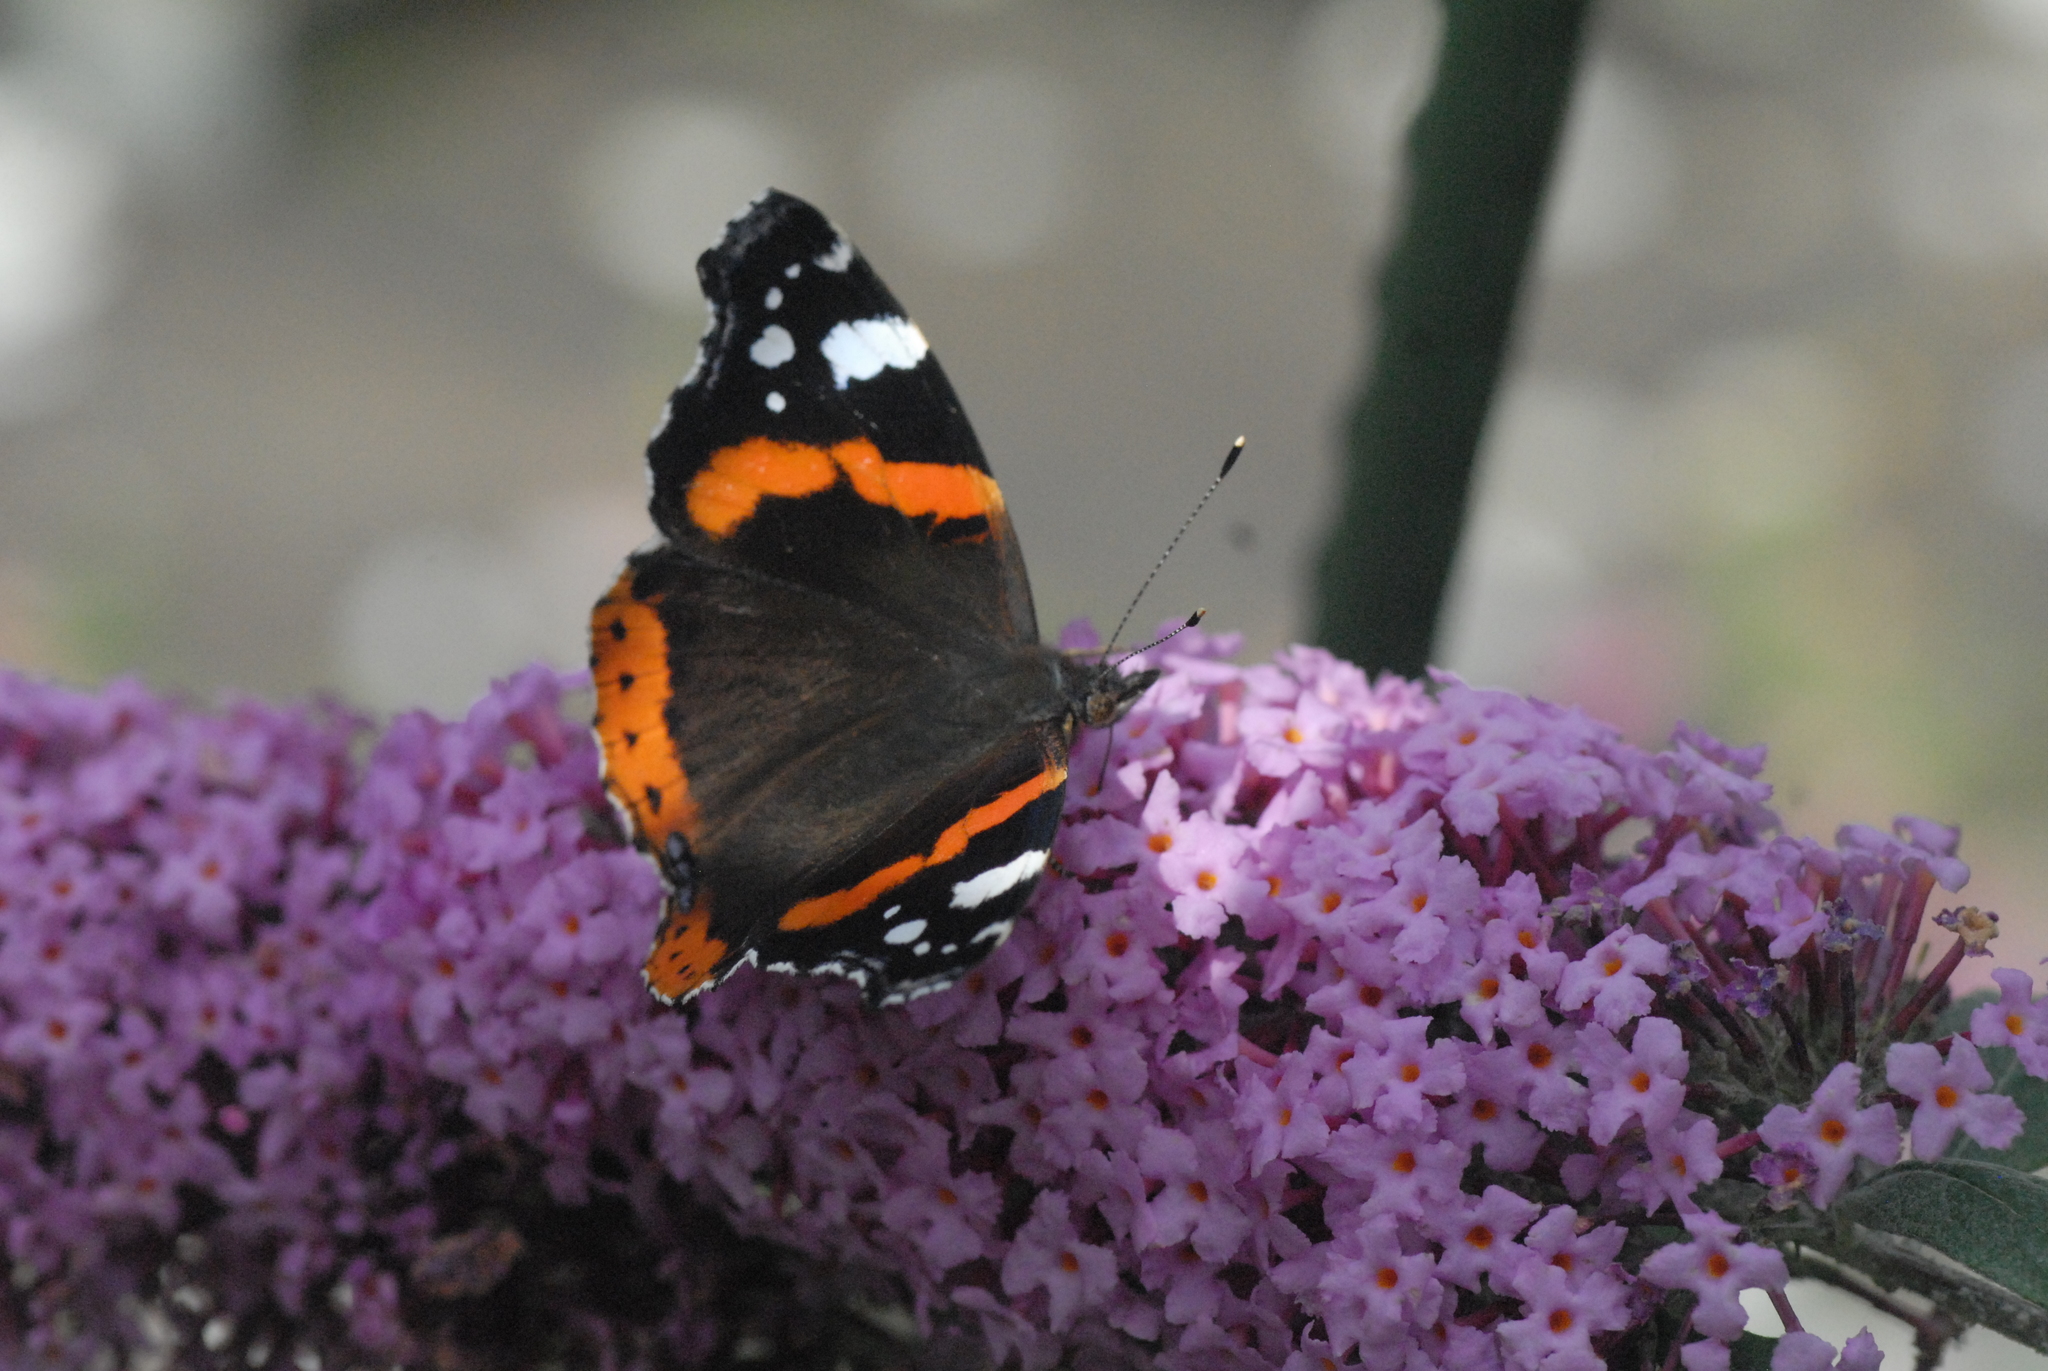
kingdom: Animalia
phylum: Arthropoda
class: Insecta
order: Lepidoptera
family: Nymphalidae
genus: Vanessa
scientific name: Vanessa atalanta
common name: Red admiral
